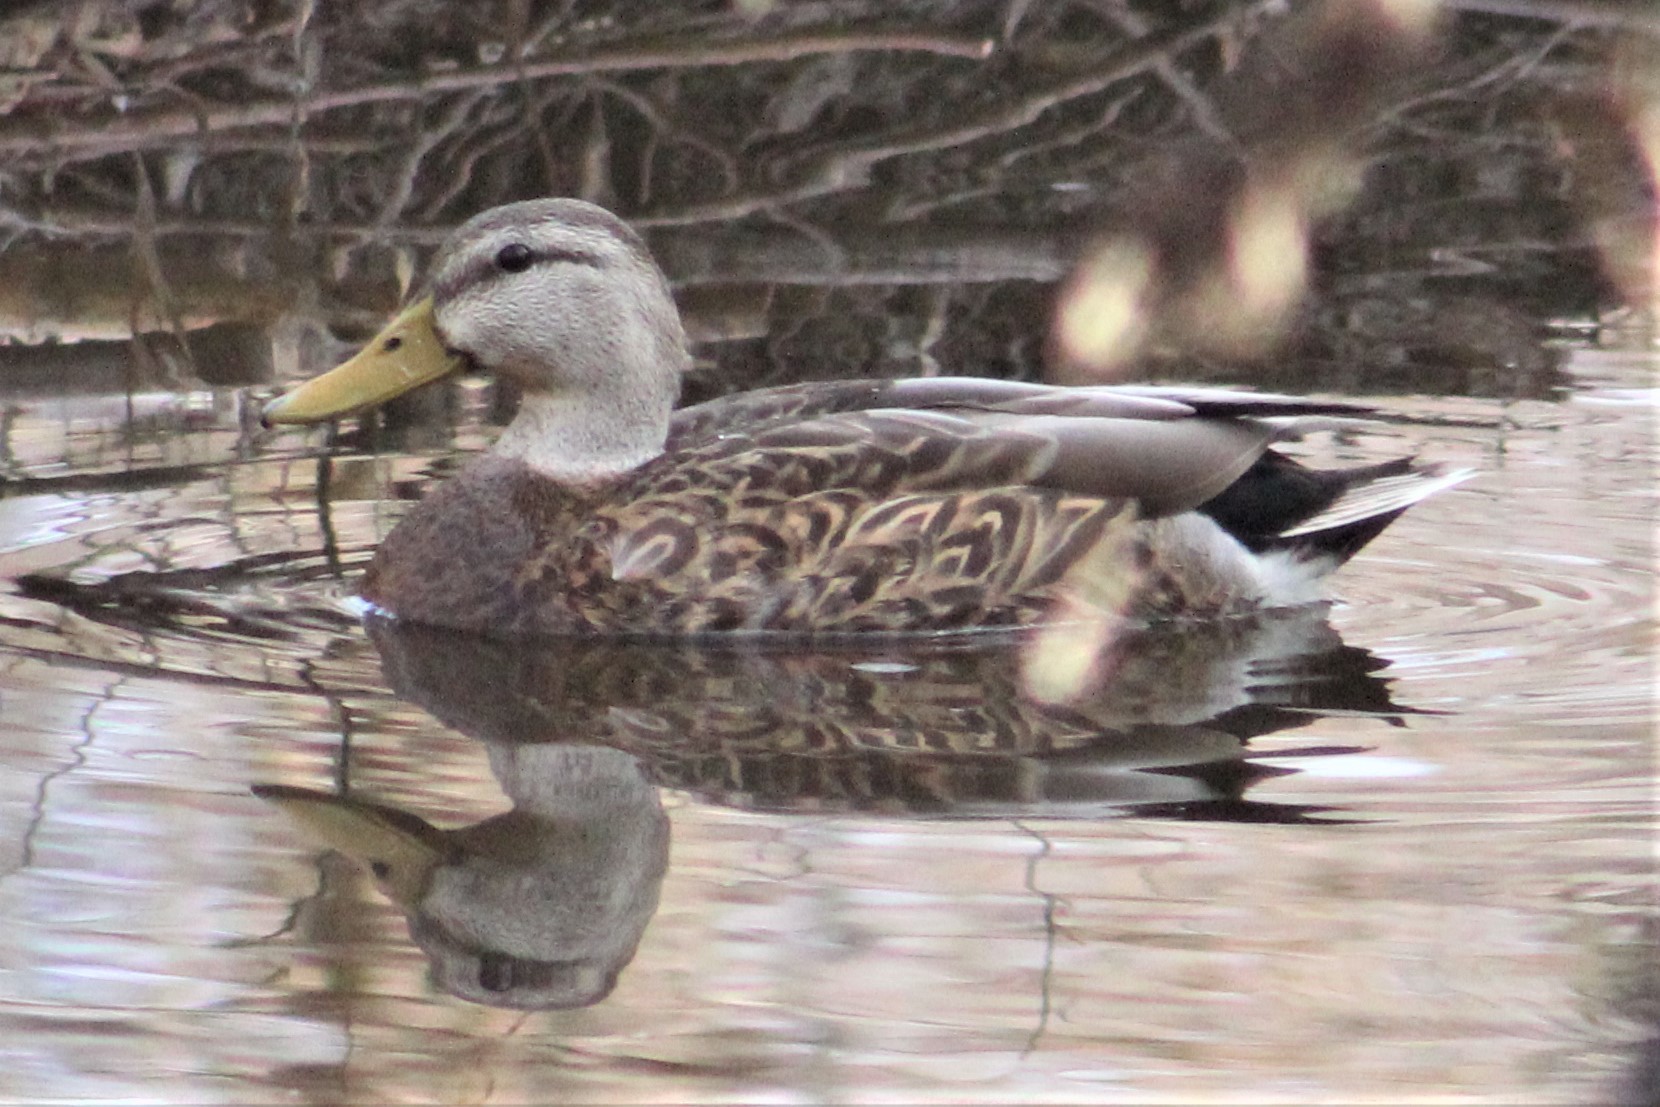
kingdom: Animalia
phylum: Chordata
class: Aves
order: Anseriformes
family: Anatidae
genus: Anas
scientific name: Anas diazi
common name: Mexican duck
